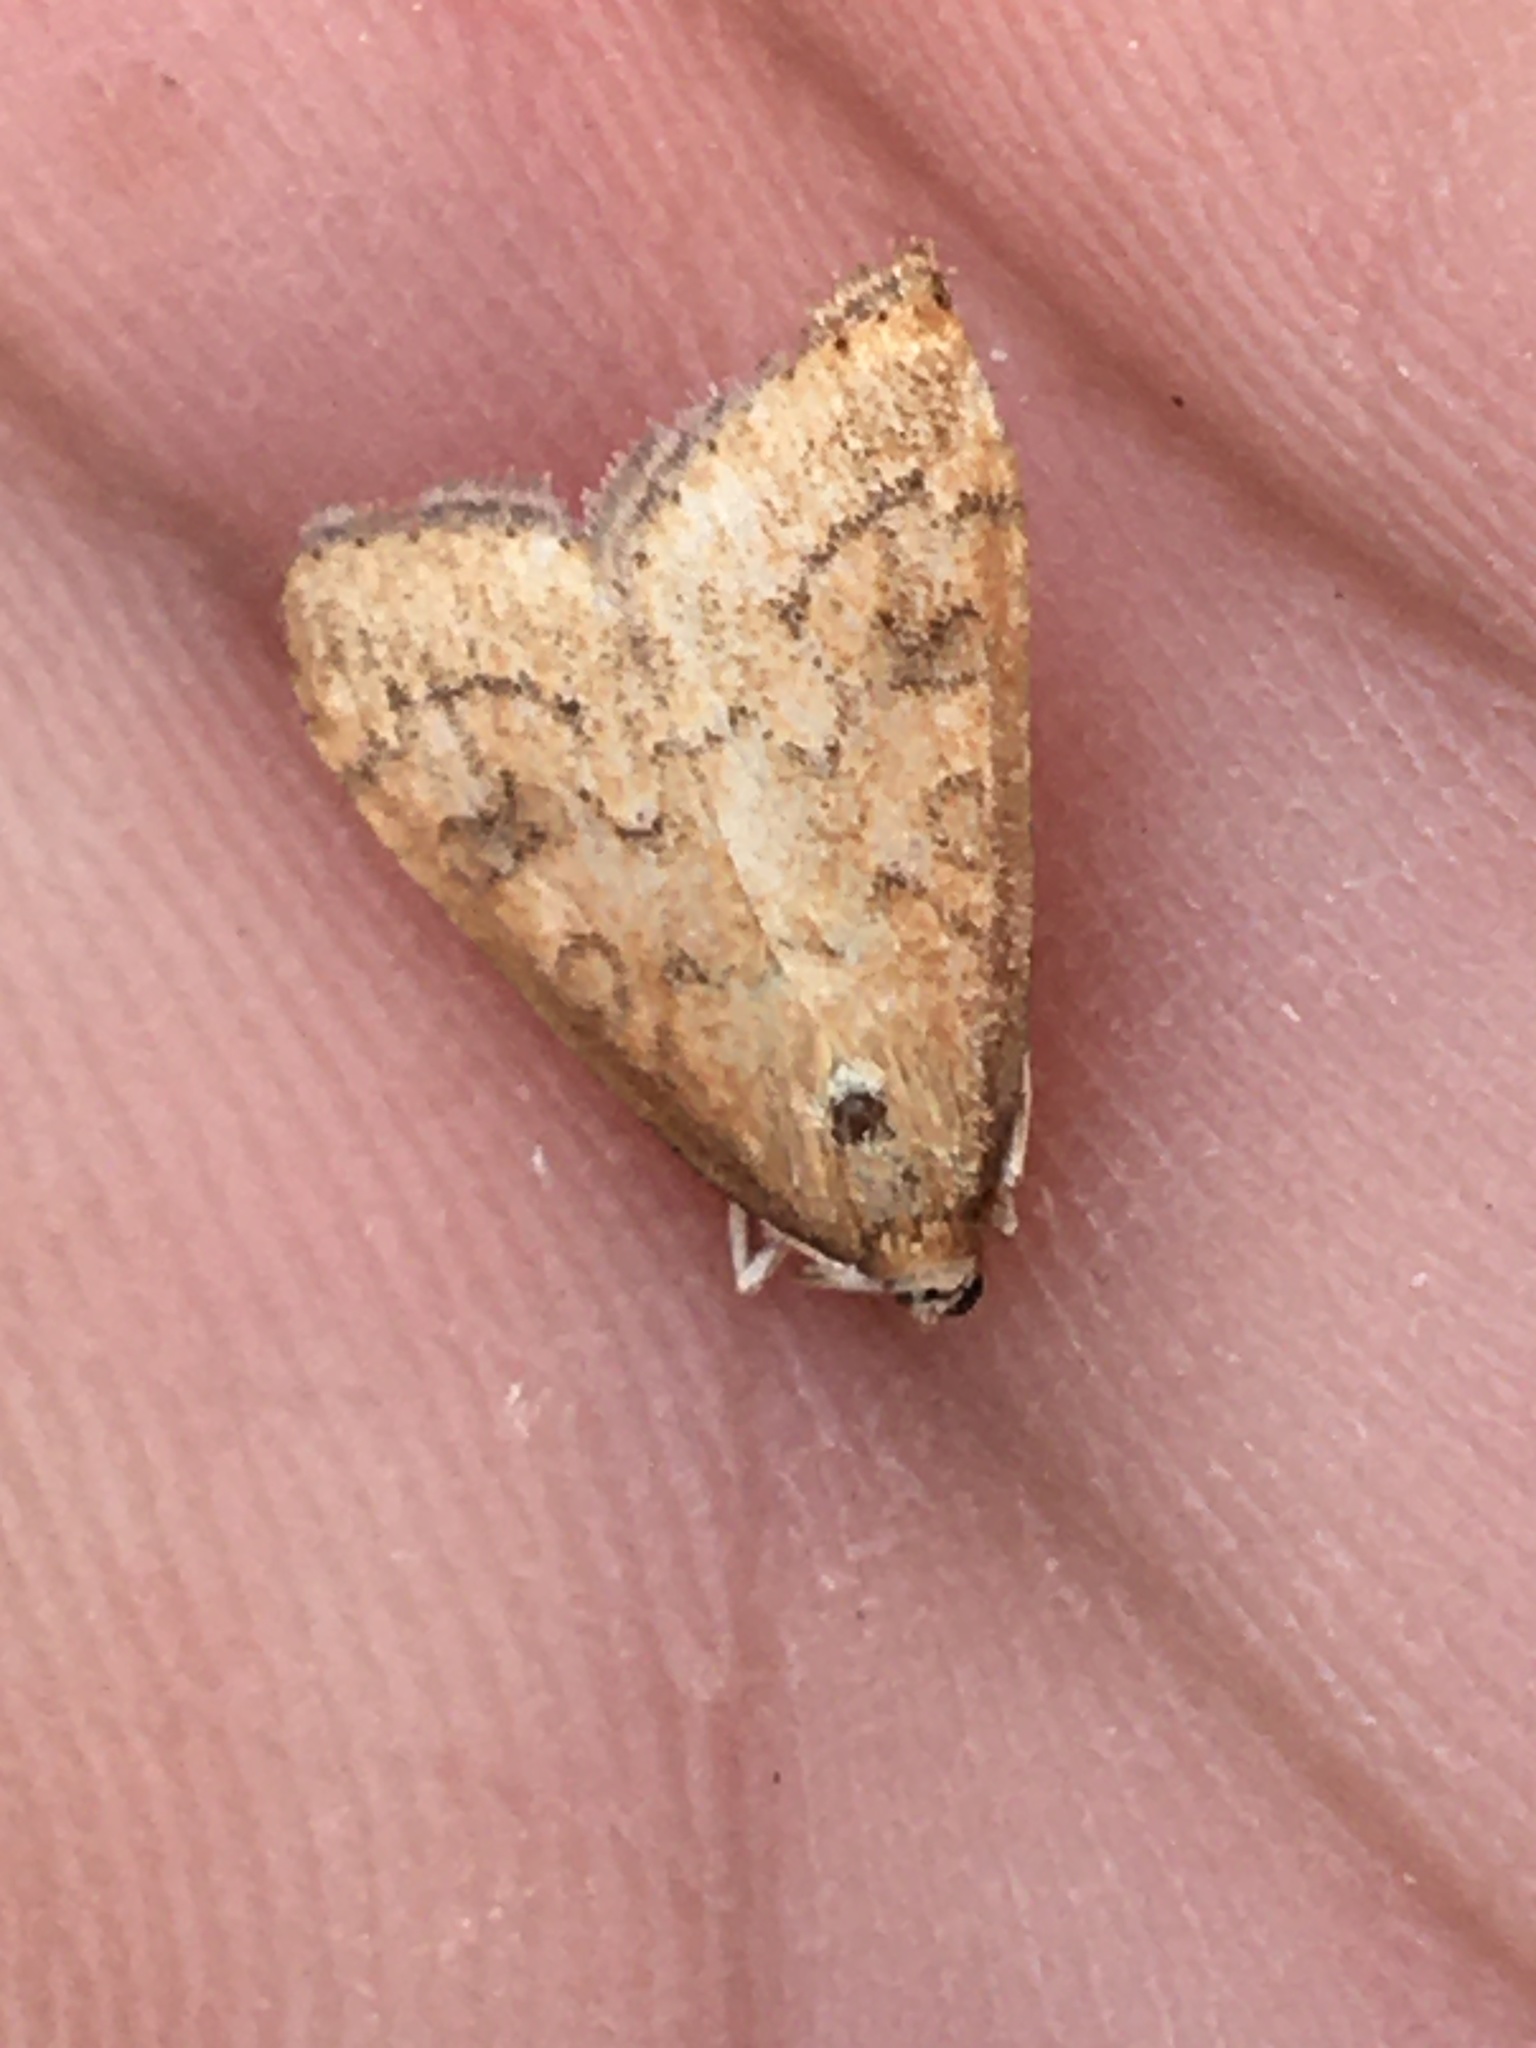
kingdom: Animalia
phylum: Arthropoda
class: Insecta
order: Lepidoptera
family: Crambidae
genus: Udea
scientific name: Udea rubigalis
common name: Celery leaftier moth
